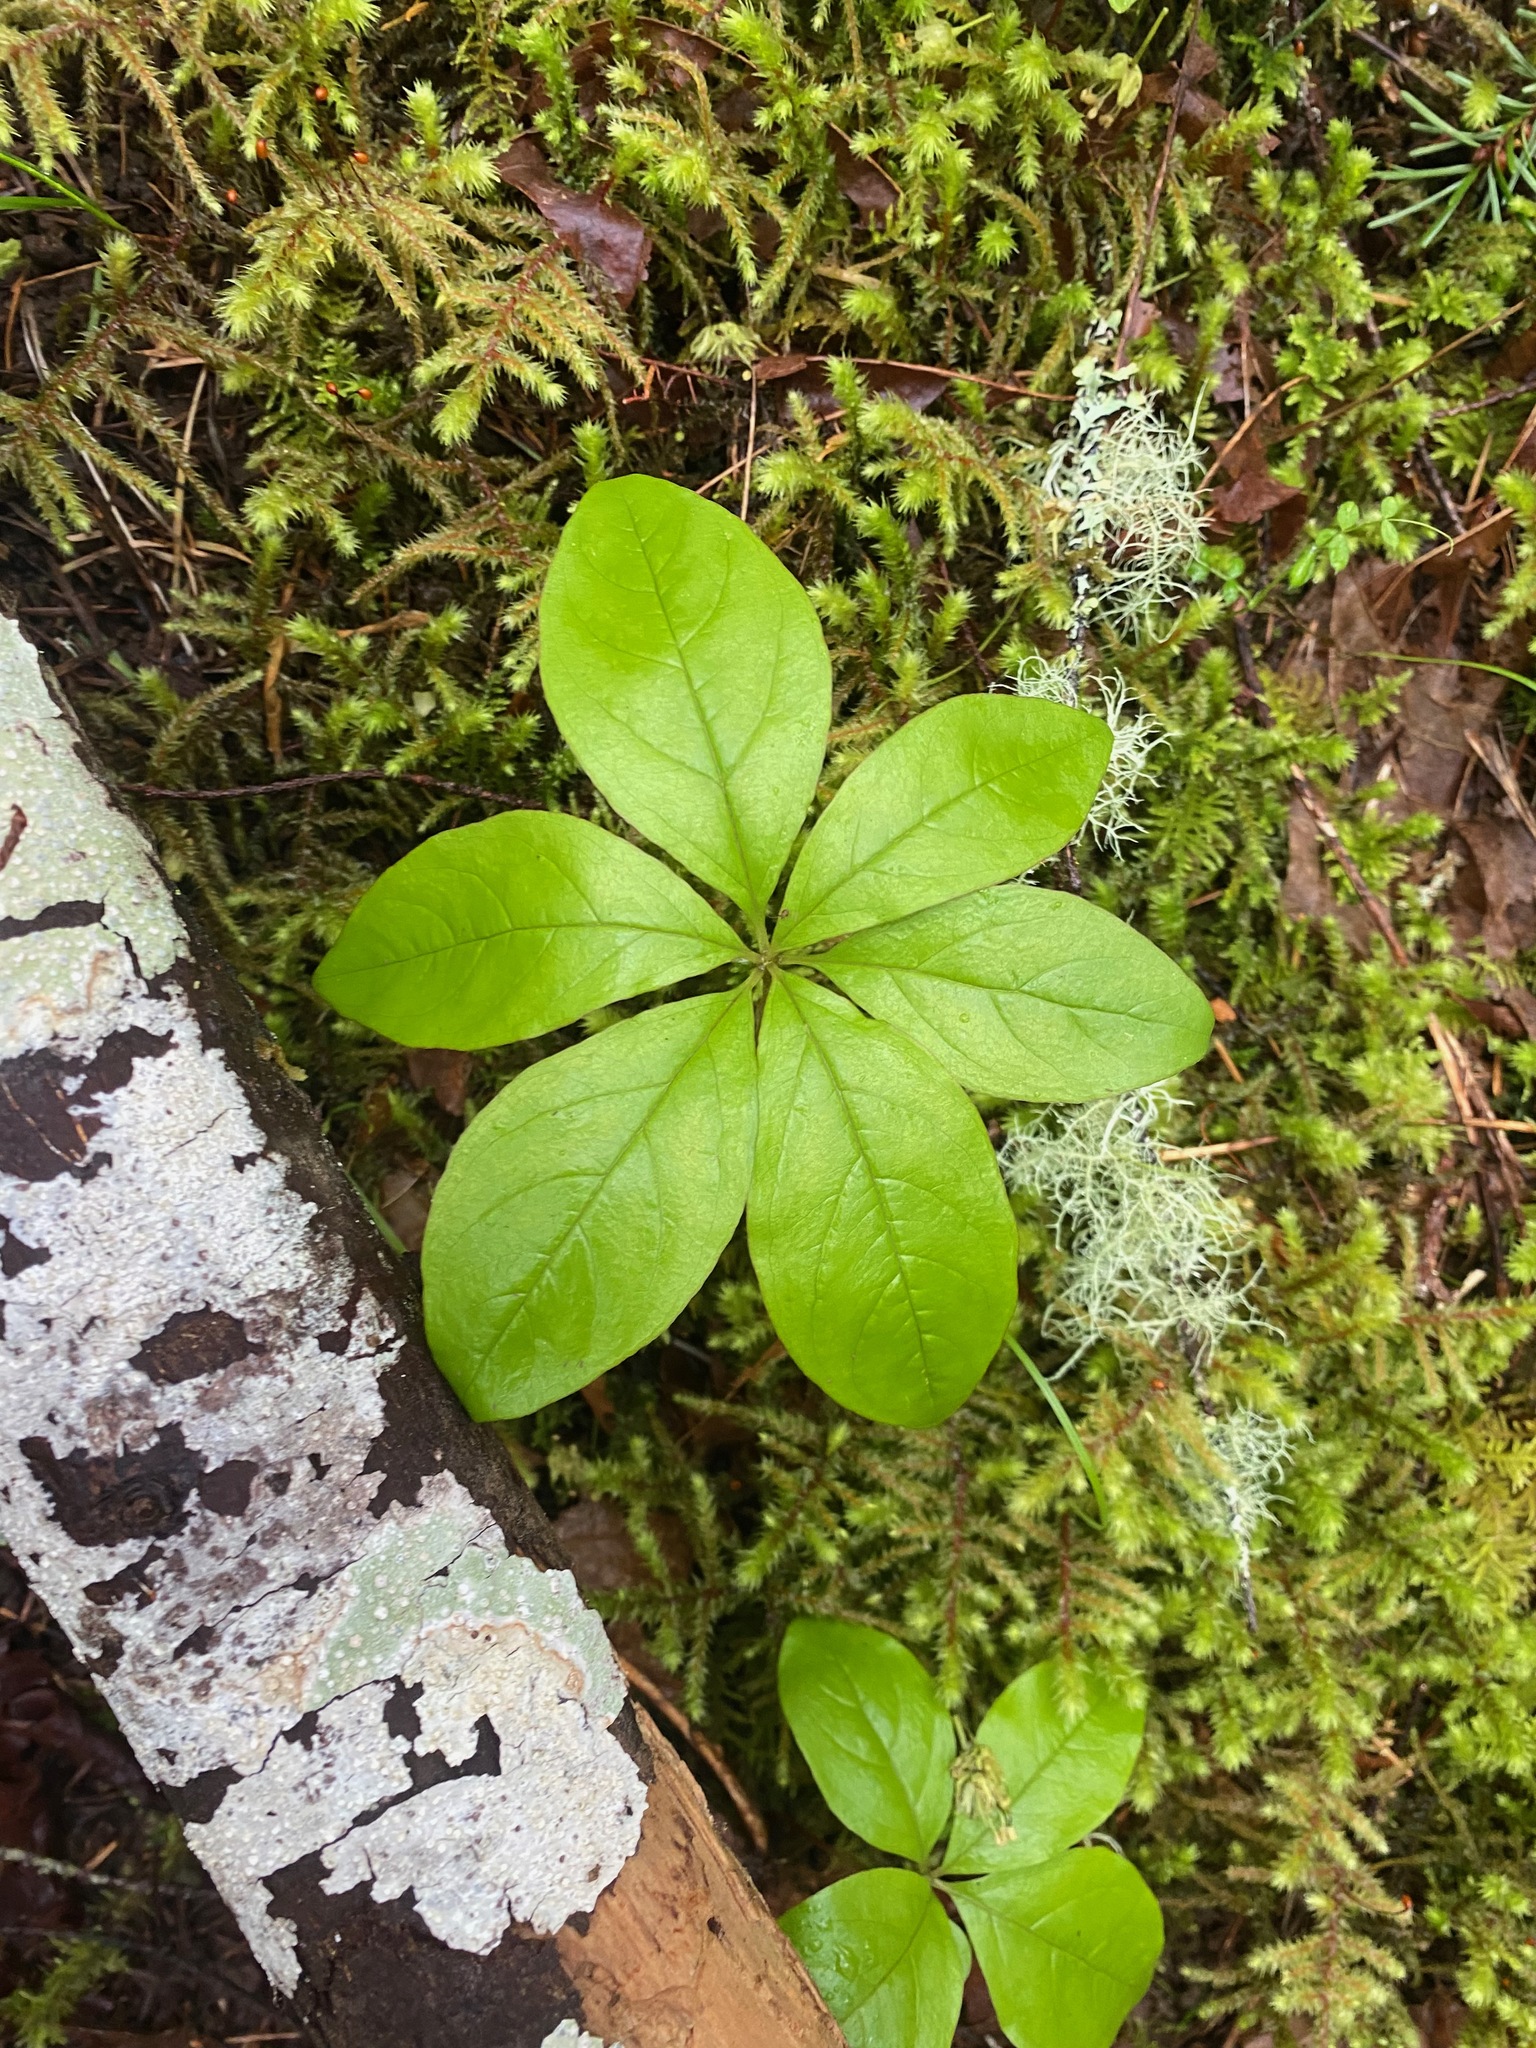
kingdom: Plantae
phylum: Tracheophyta
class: Magnoliopsida
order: Ericales
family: Primulaceae
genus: Lysimachia
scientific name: Lysimachia latifolia
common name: Pacific starflower
